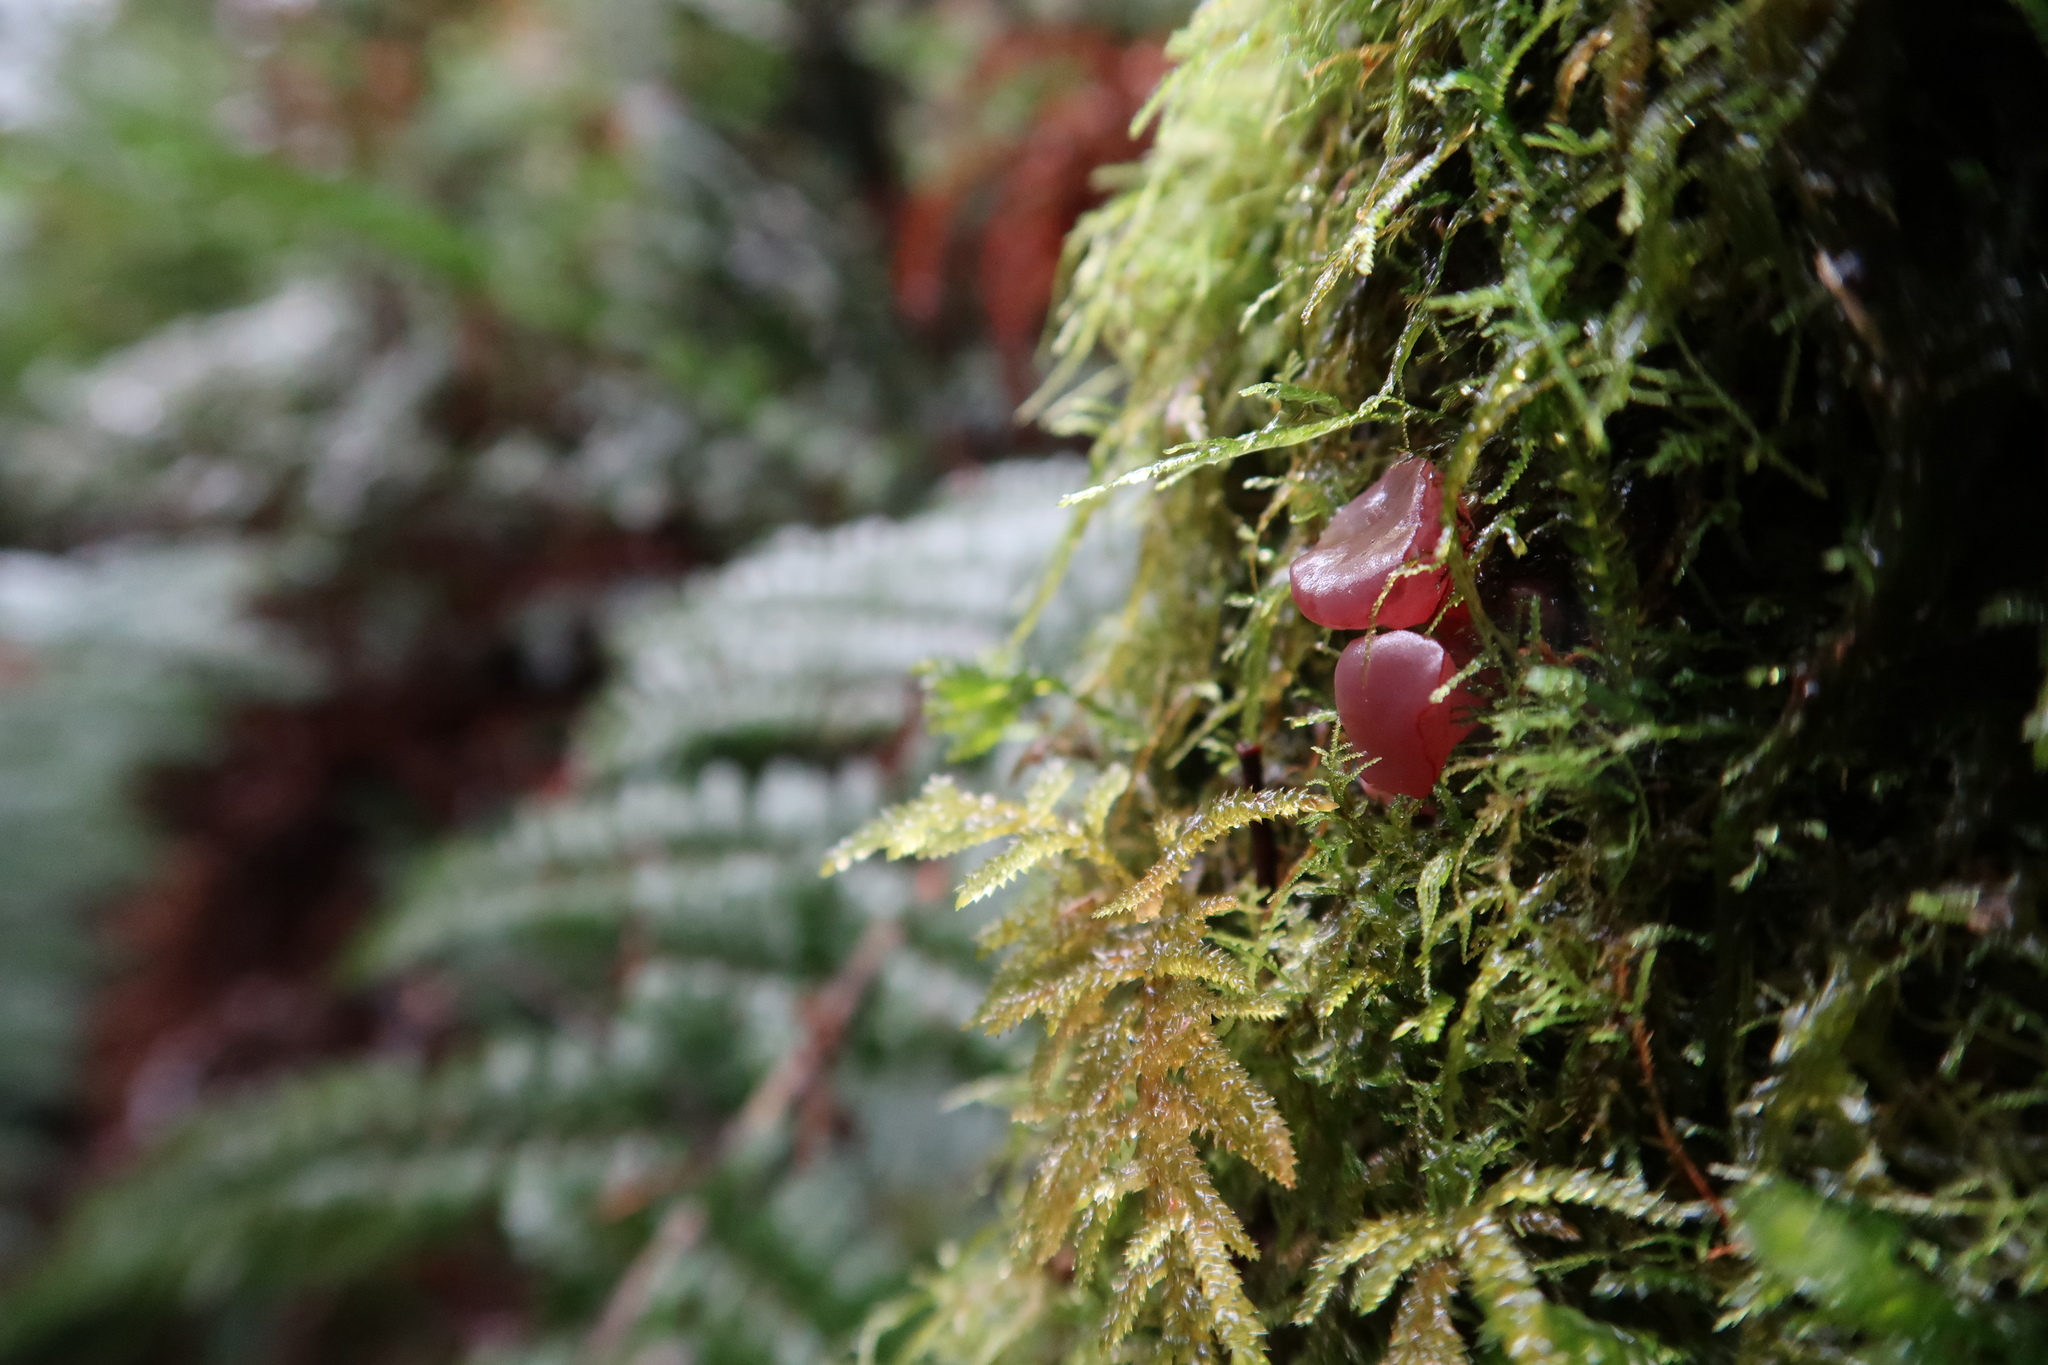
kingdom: Fungi
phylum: Ascomycota
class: Leotiomycetes
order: Helotiales
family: Gelatinodiscaceae
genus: Ascocoryne
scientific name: Ascocoryne sarcoides
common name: Purple jellydisc
